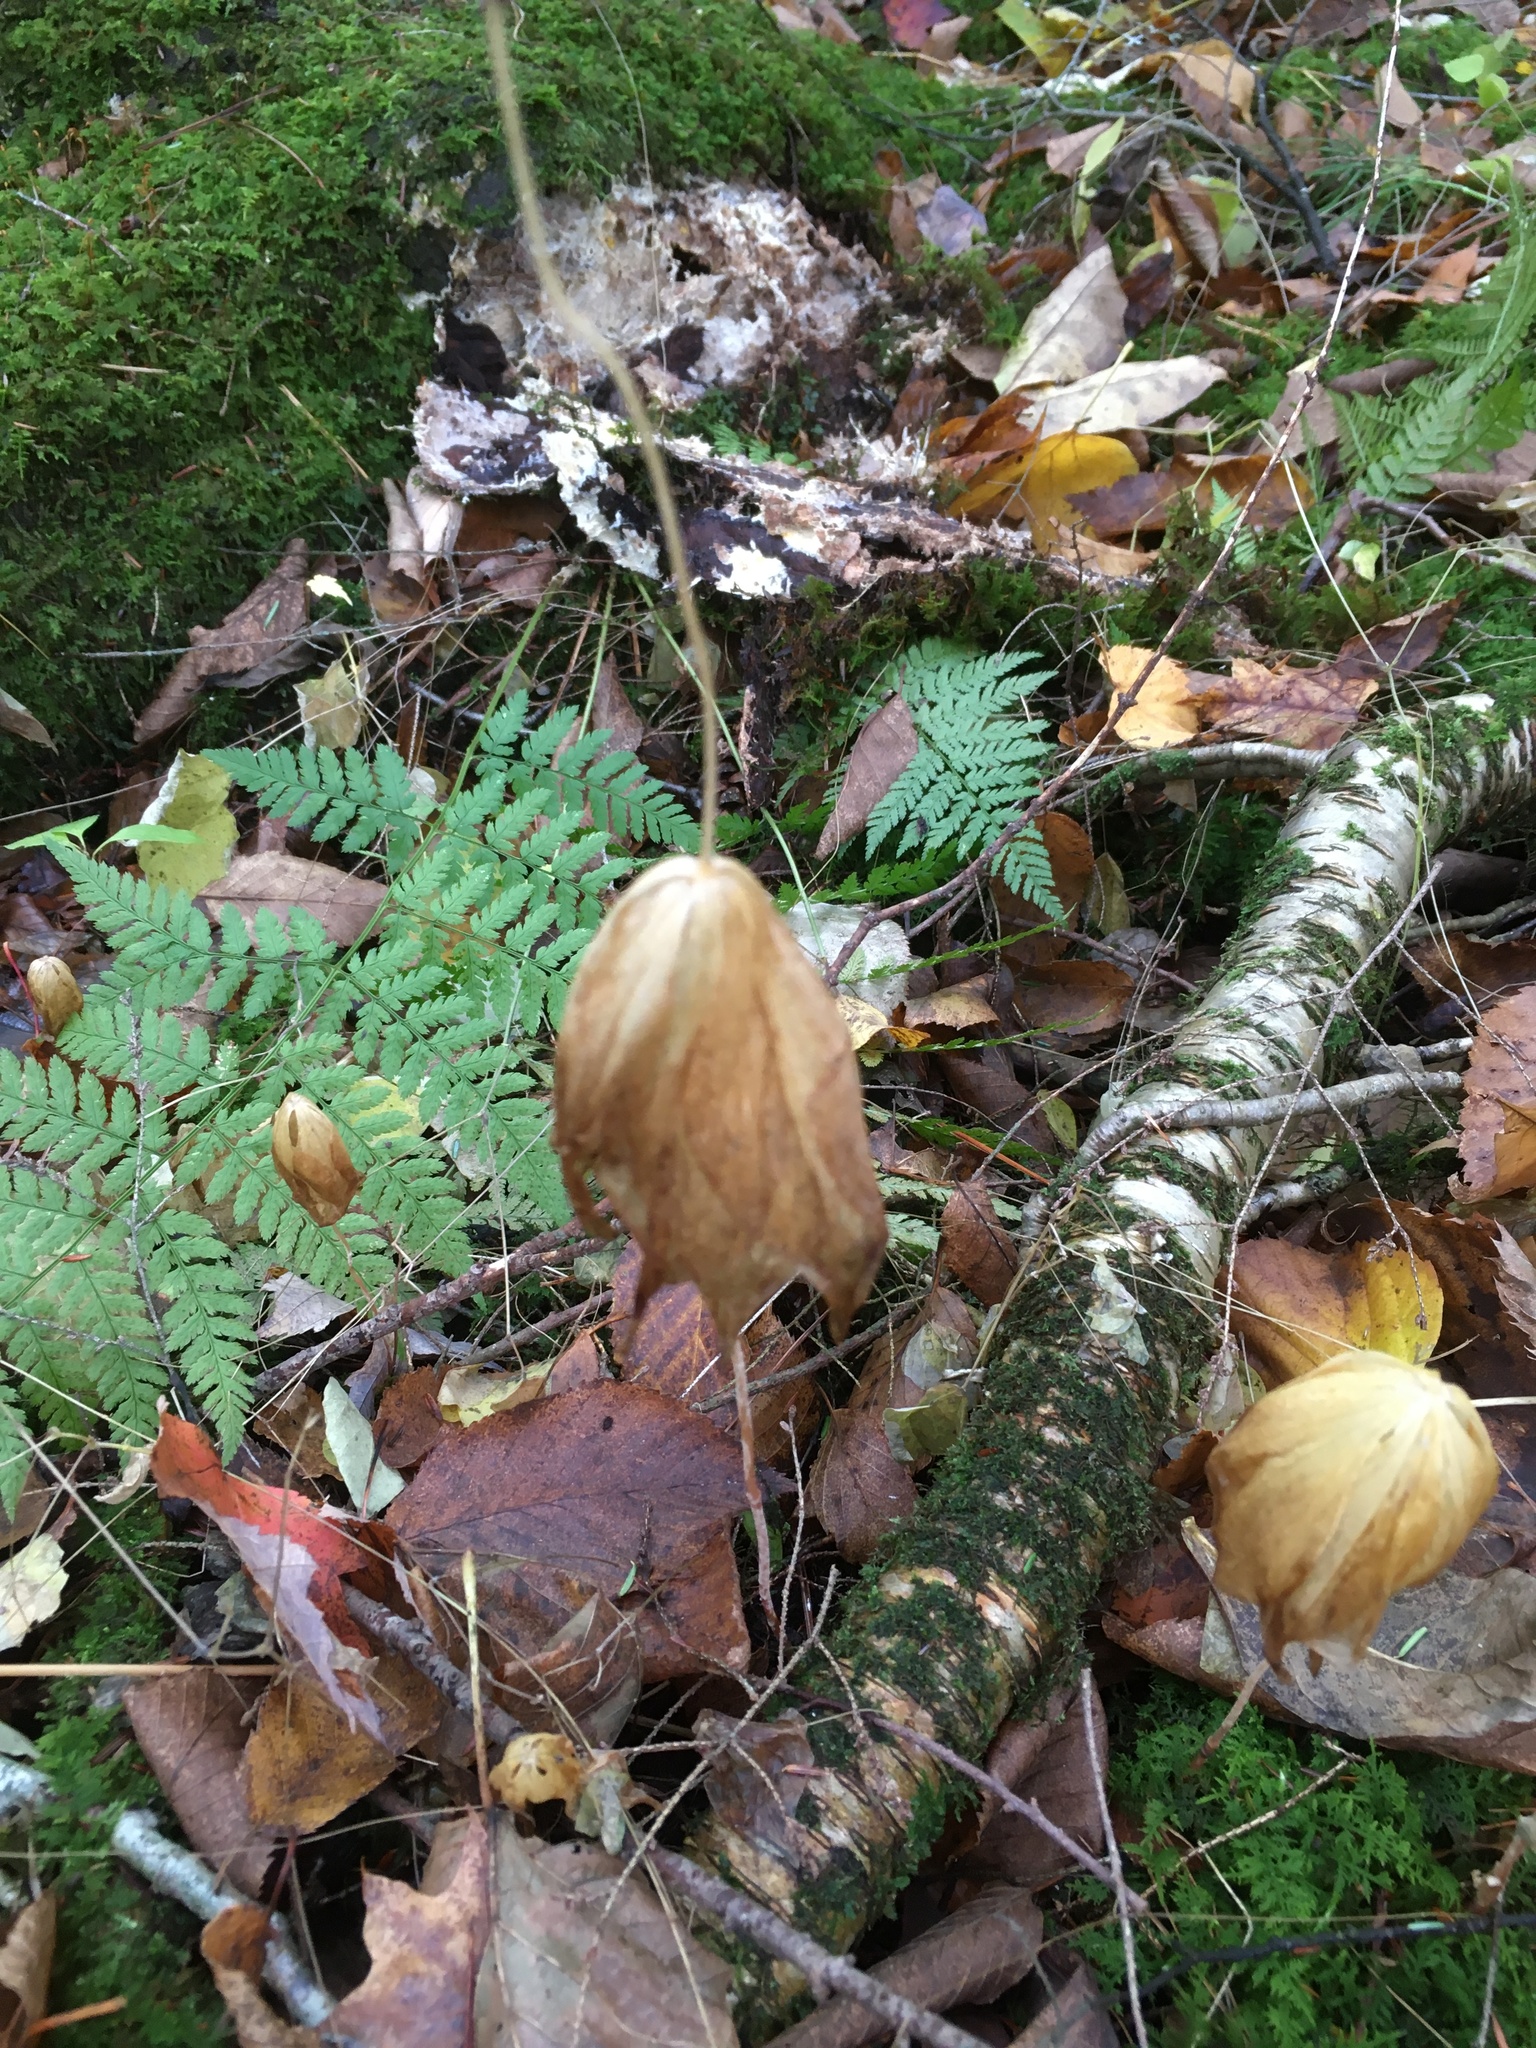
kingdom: Plantae
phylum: Tracheophyta
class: Liliopsida
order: Liliales
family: Liliaceae
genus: Medeola
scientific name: Medeola virginiana
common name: Indian cucumber-root
